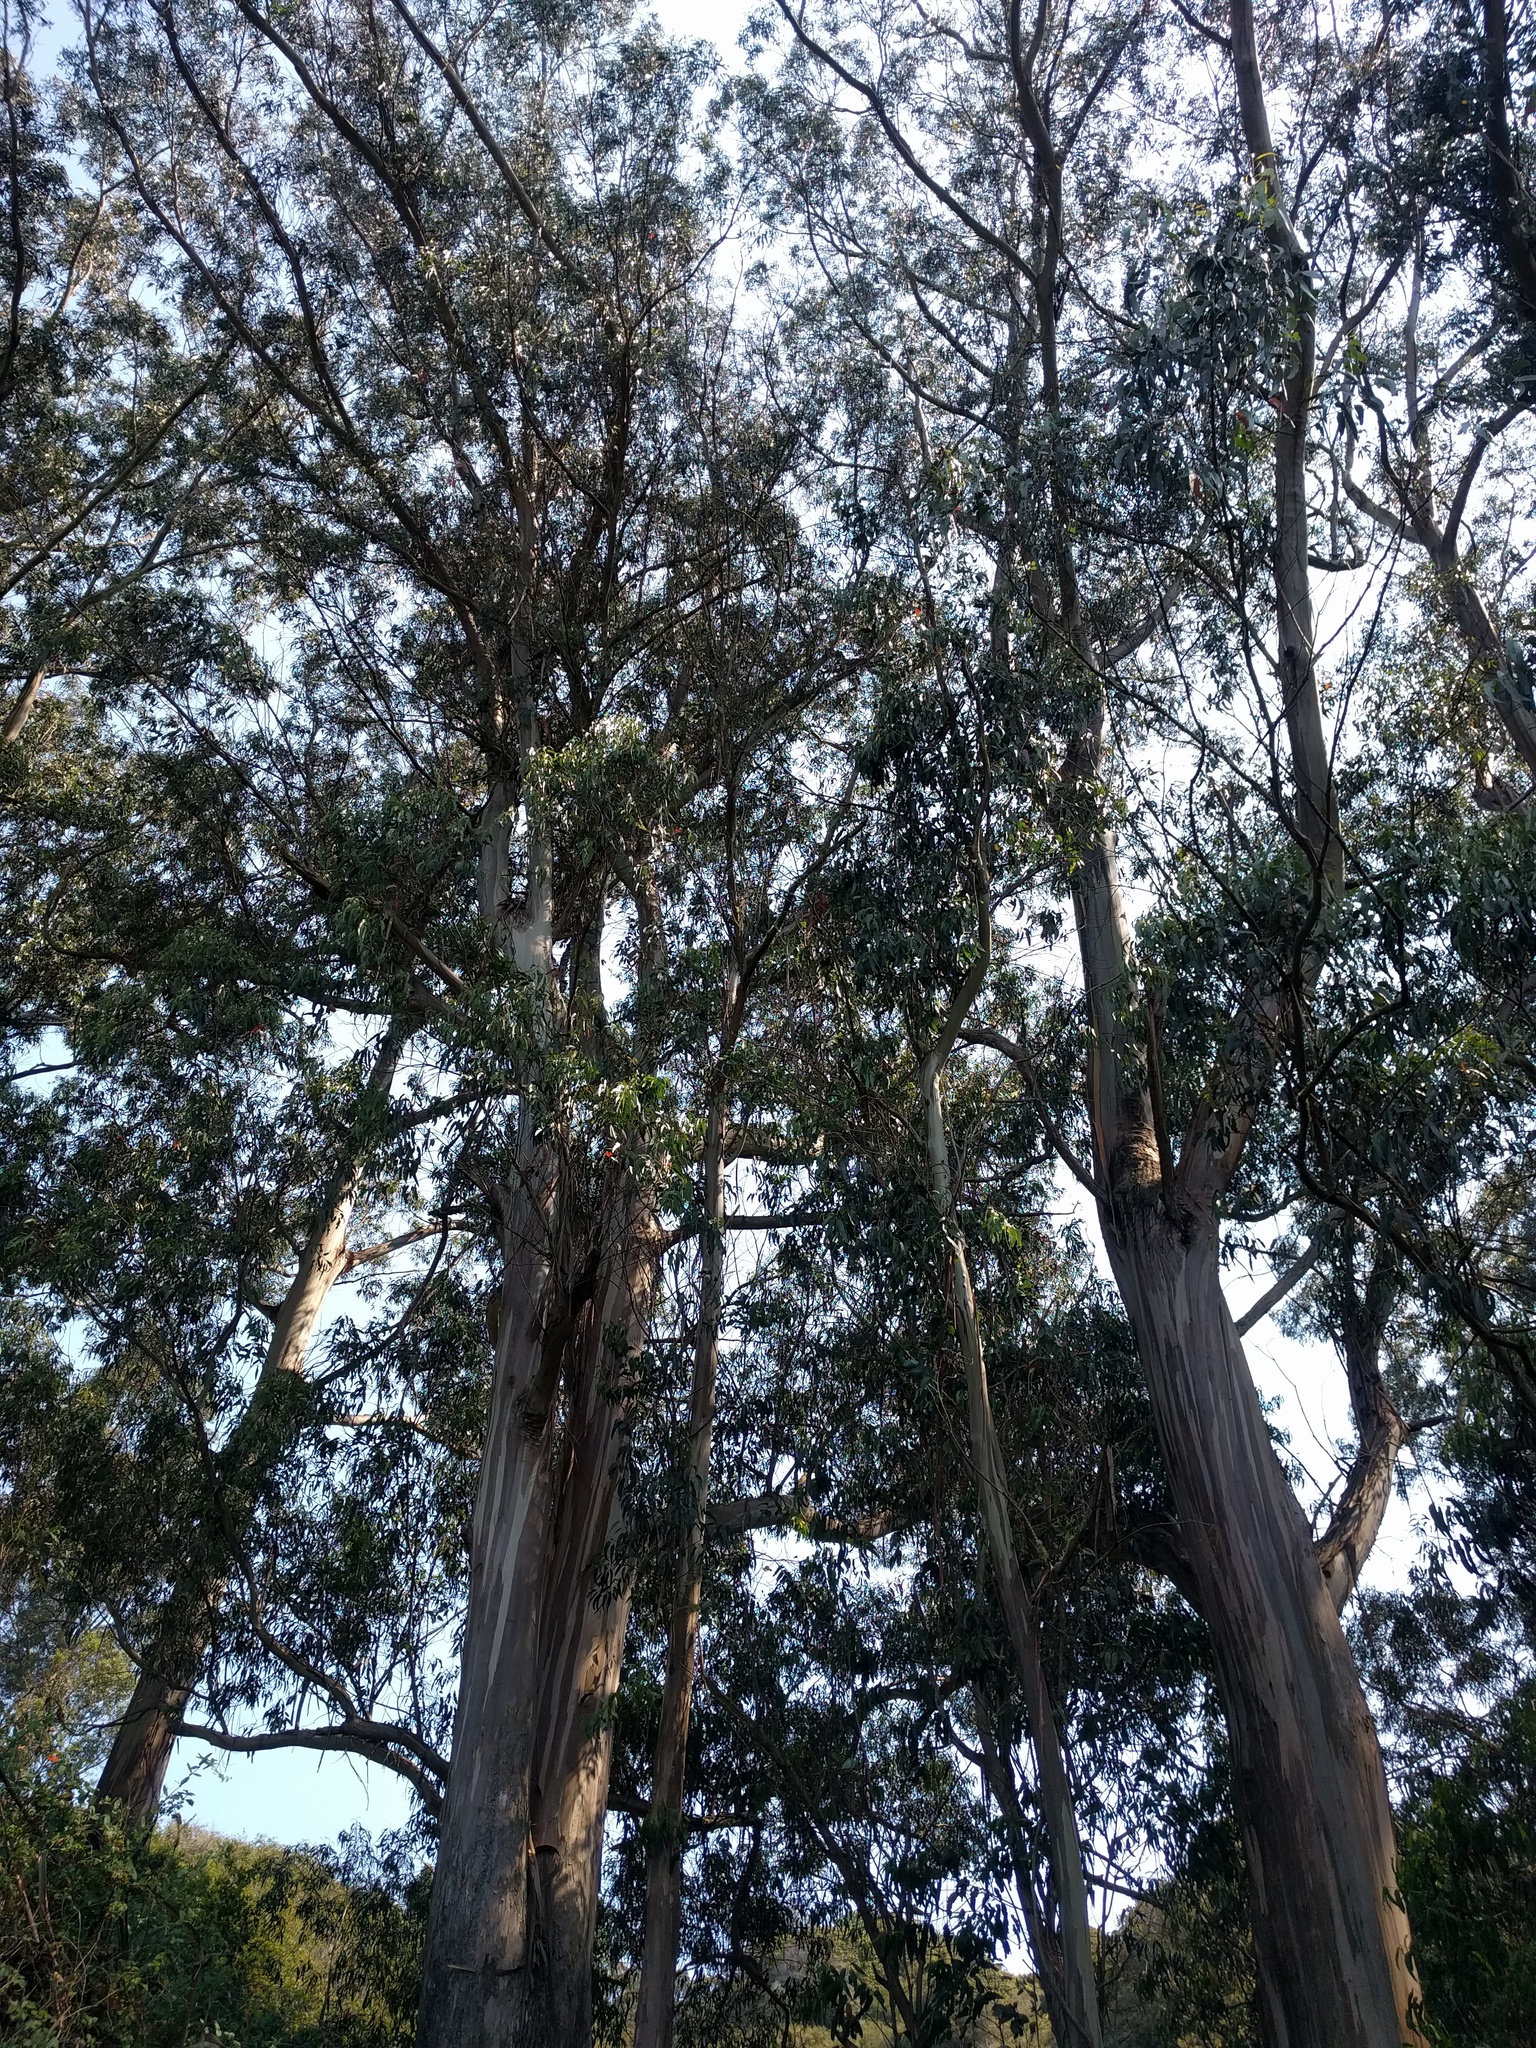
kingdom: Plantae
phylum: Tracheophyta
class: Magnoliopsida
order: Myrtales
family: Myrtaceae
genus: Eucalyptus
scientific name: Eucalyptus globulus
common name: Southern blue-gum
